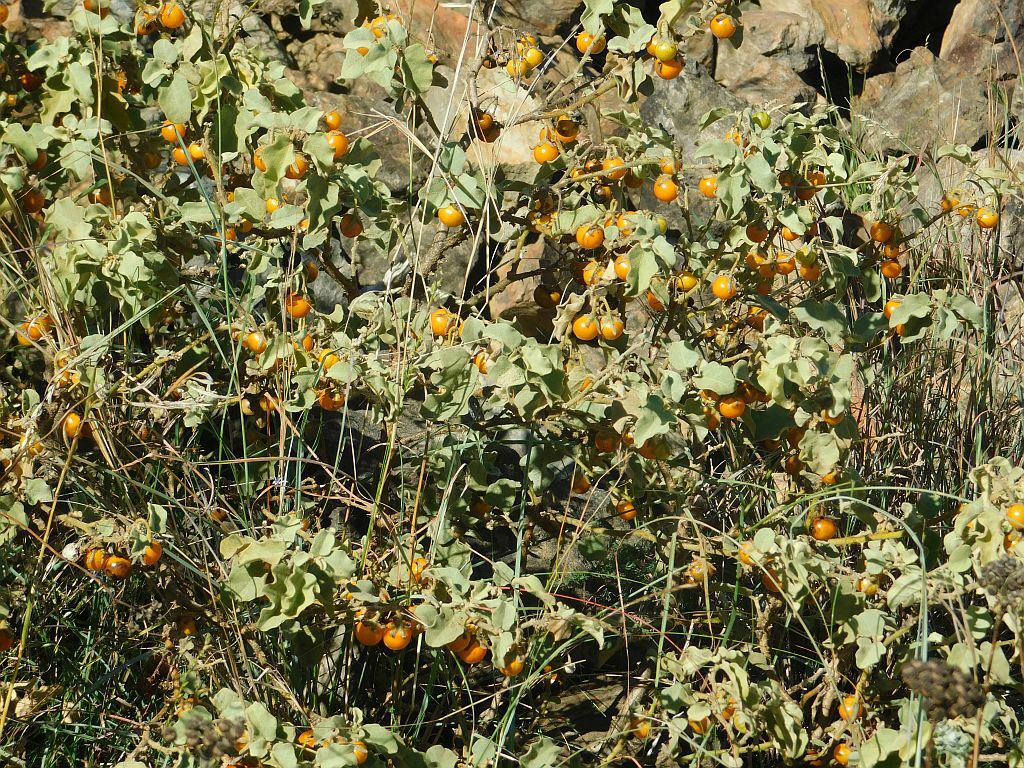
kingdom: Plantae
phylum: Tracheophyta
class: Magnoliopsida
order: Solanales
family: Solanaceae
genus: Solanum
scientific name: Solanum tomentosum
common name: Wild aubergine
